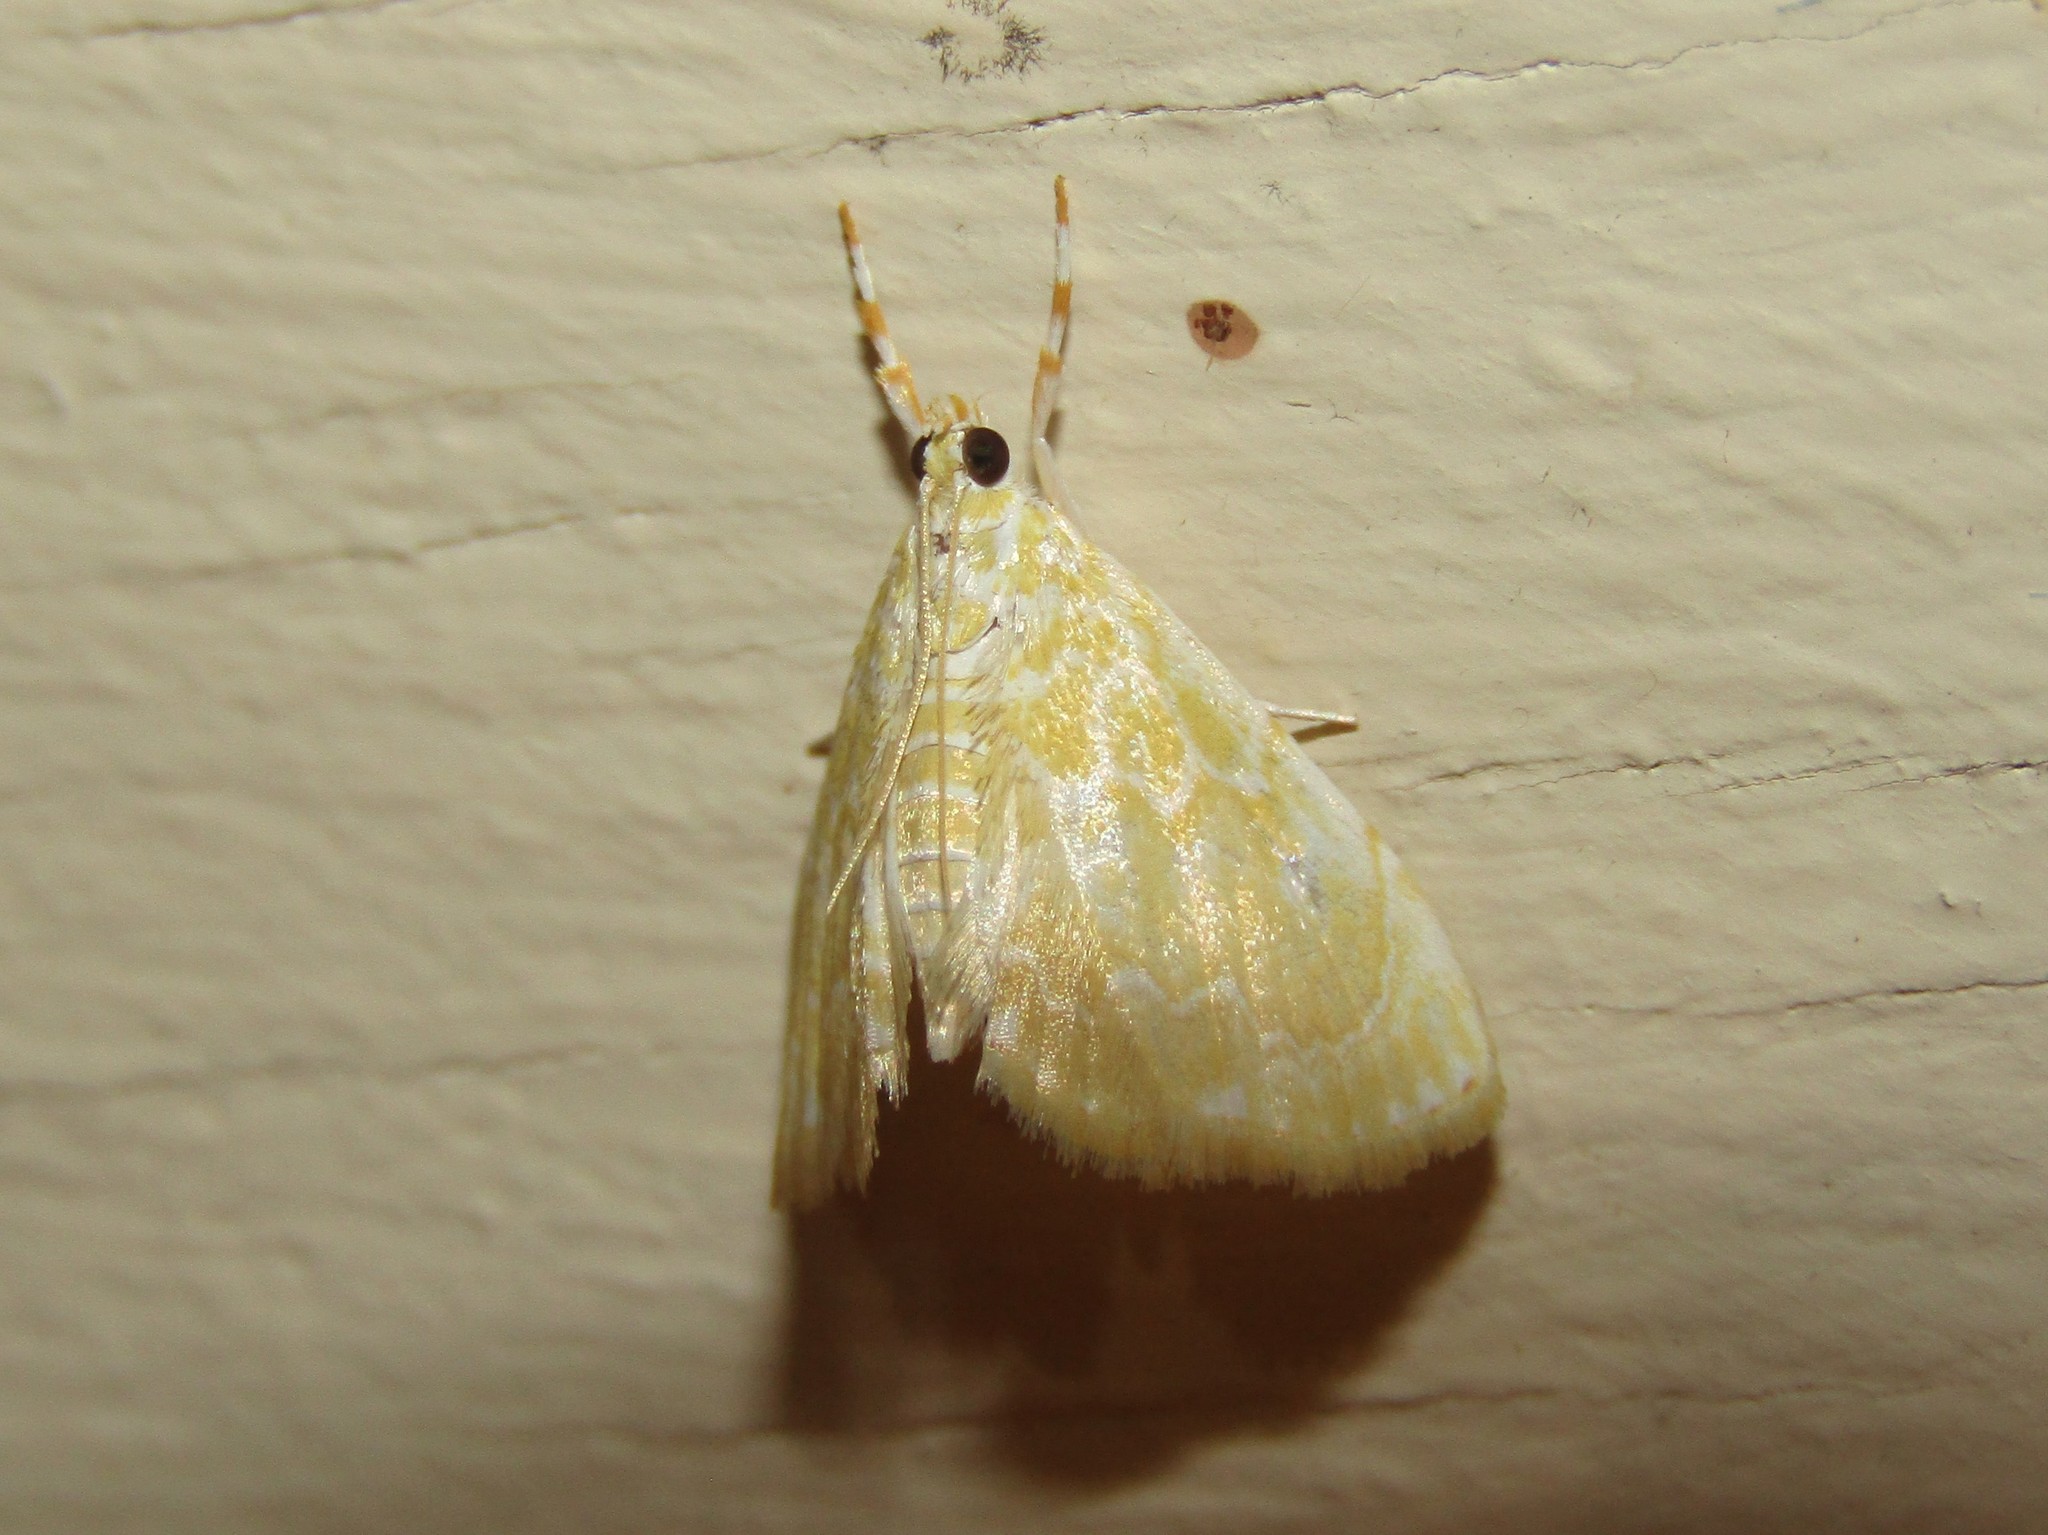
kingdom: Animalia
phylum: Arthropoda
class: Insecta
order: Lepidoptera
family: Crambidae
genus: Glaphyria
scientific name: Glaphyria glaphyralis
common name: Common glaphyria moth
